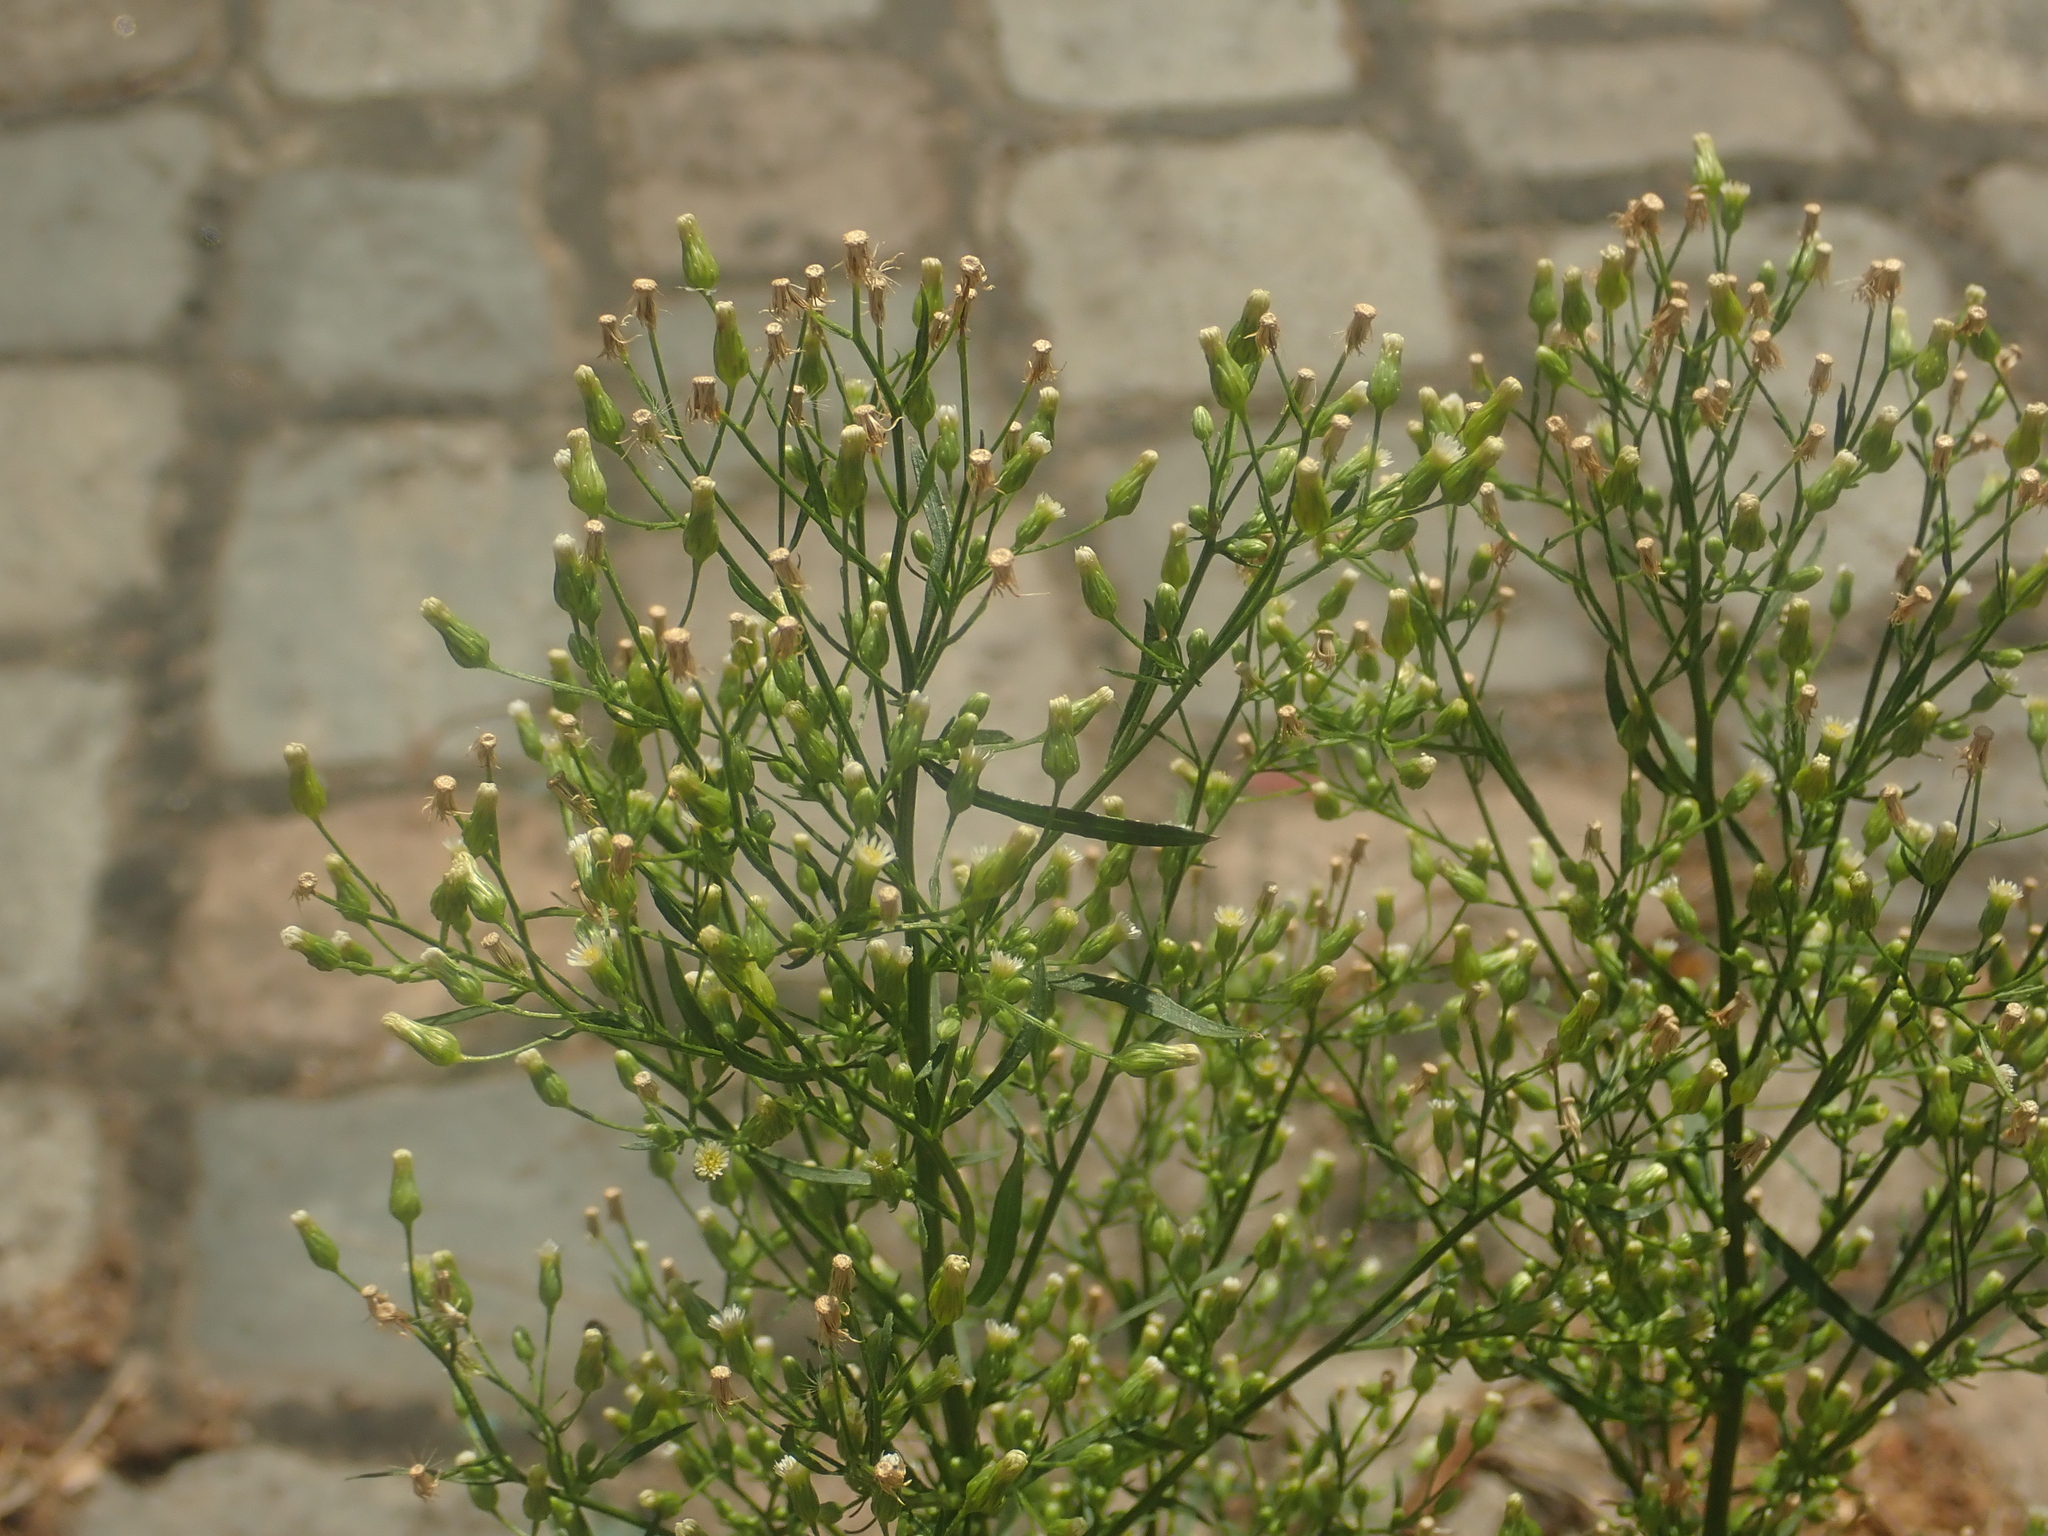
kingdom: Plantae
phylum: Tracheophyta
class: Magnoliopsida
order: Asterales
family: Asteraceae
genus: Erigeron
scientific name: Erigeron canadensis
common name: Canadian fleabane
